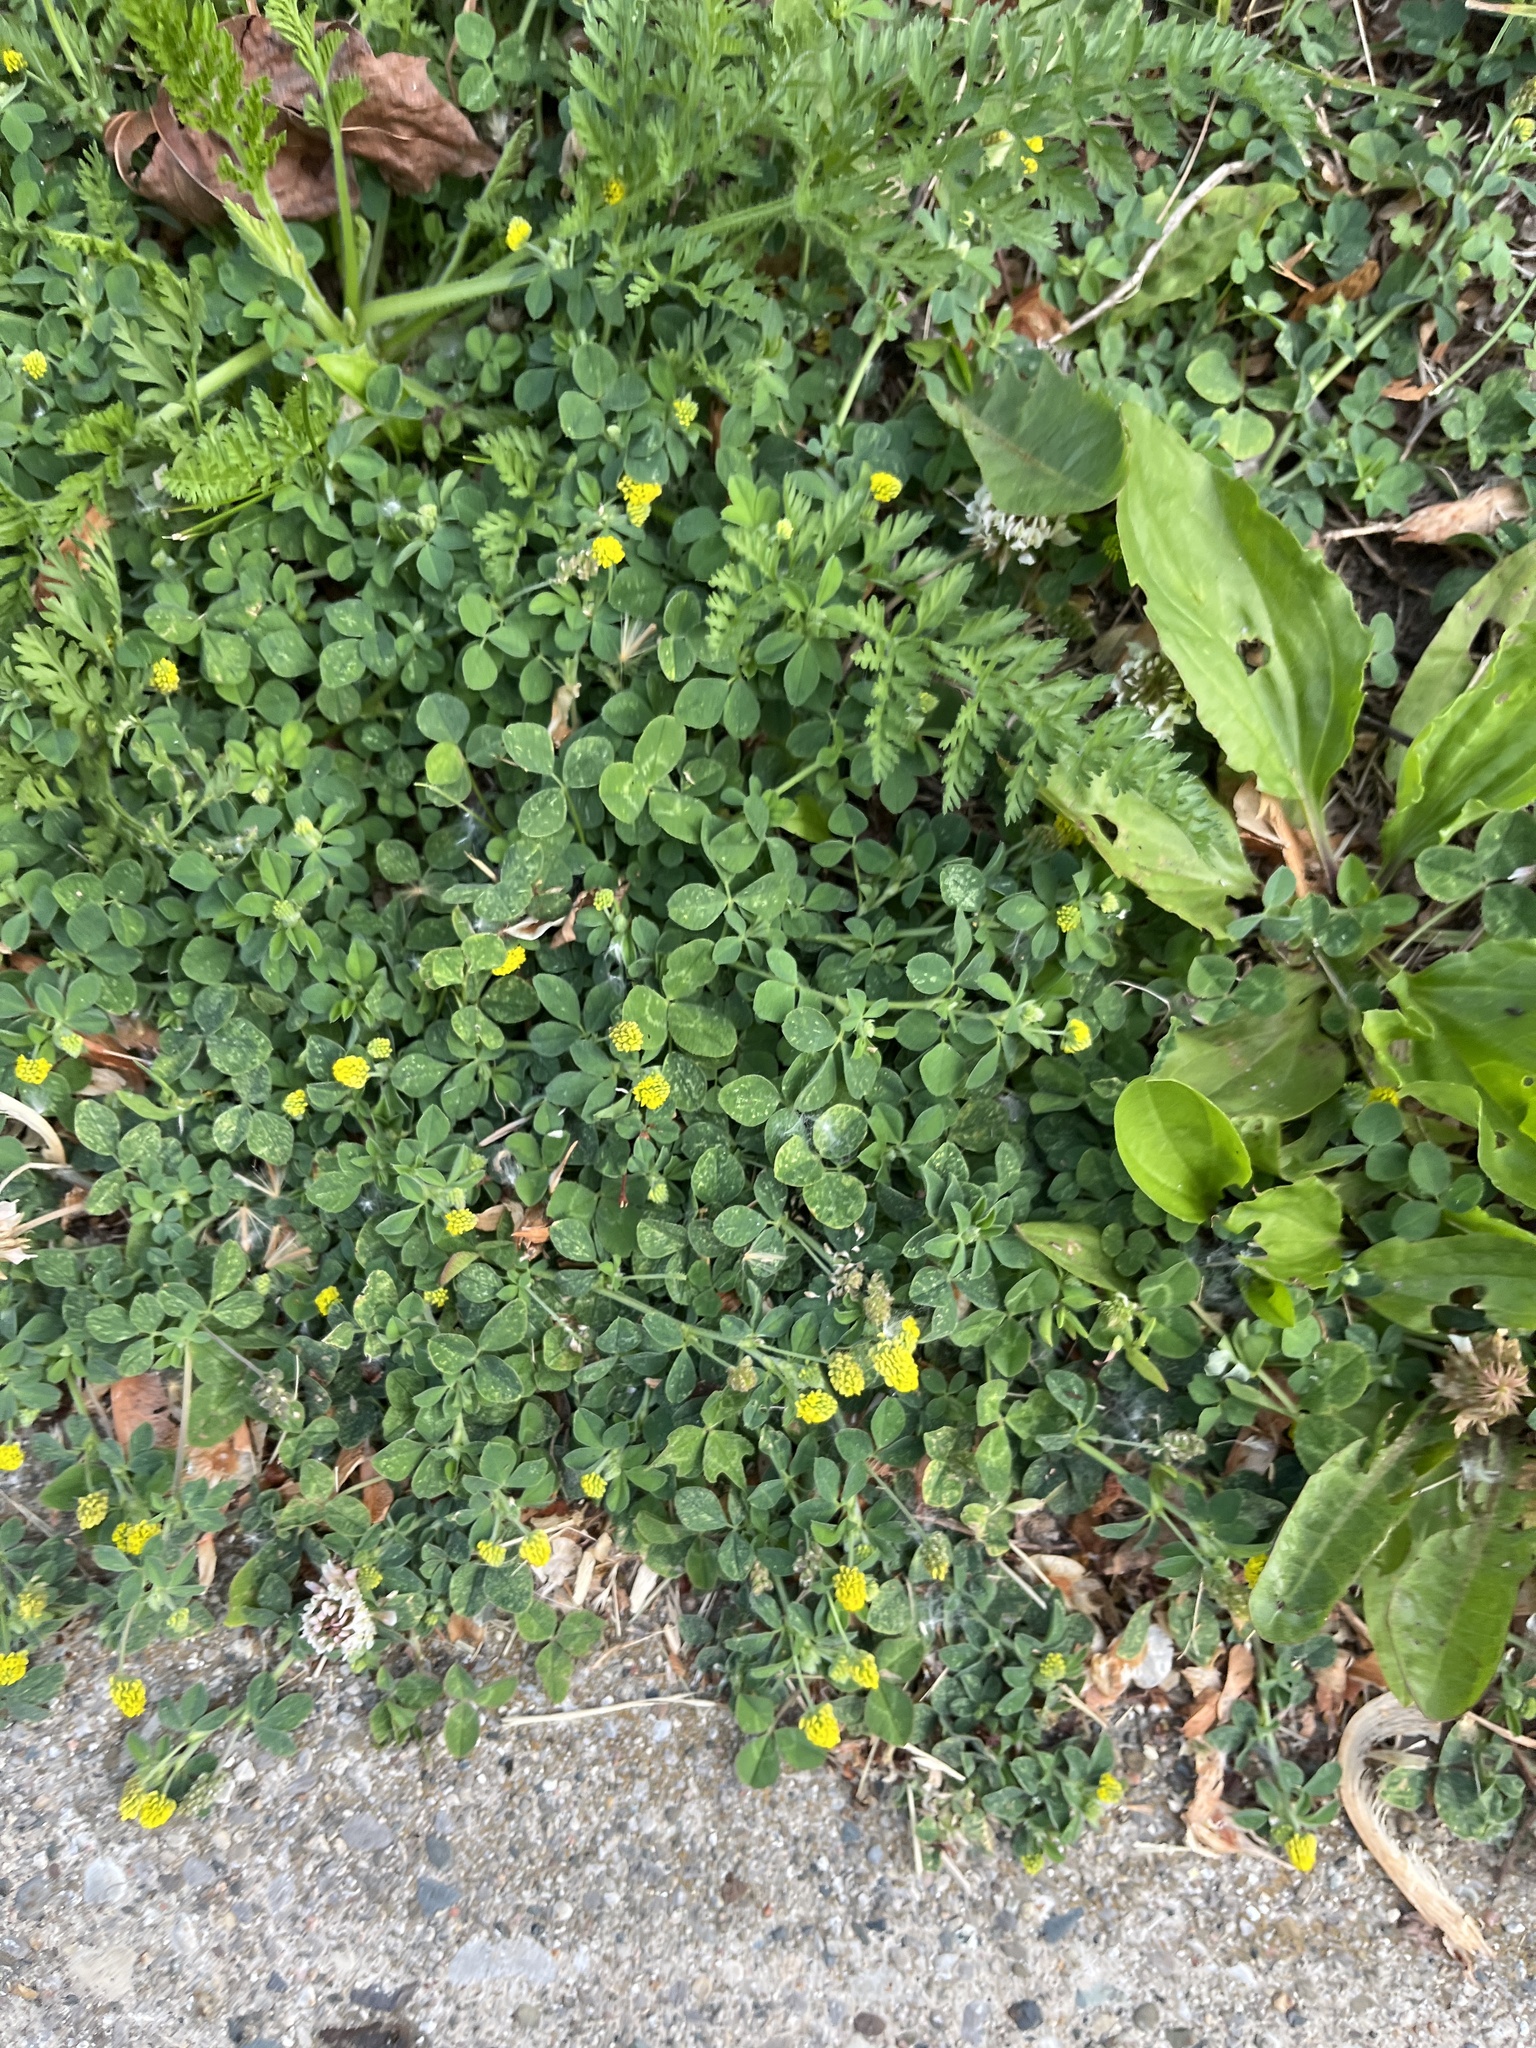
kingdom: Plantae
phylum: Tracheophyta
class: Magnoliopsida
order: Fabales
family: Fabaceae
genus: Medicago
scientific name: Medicago lupulina
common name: Black medick
